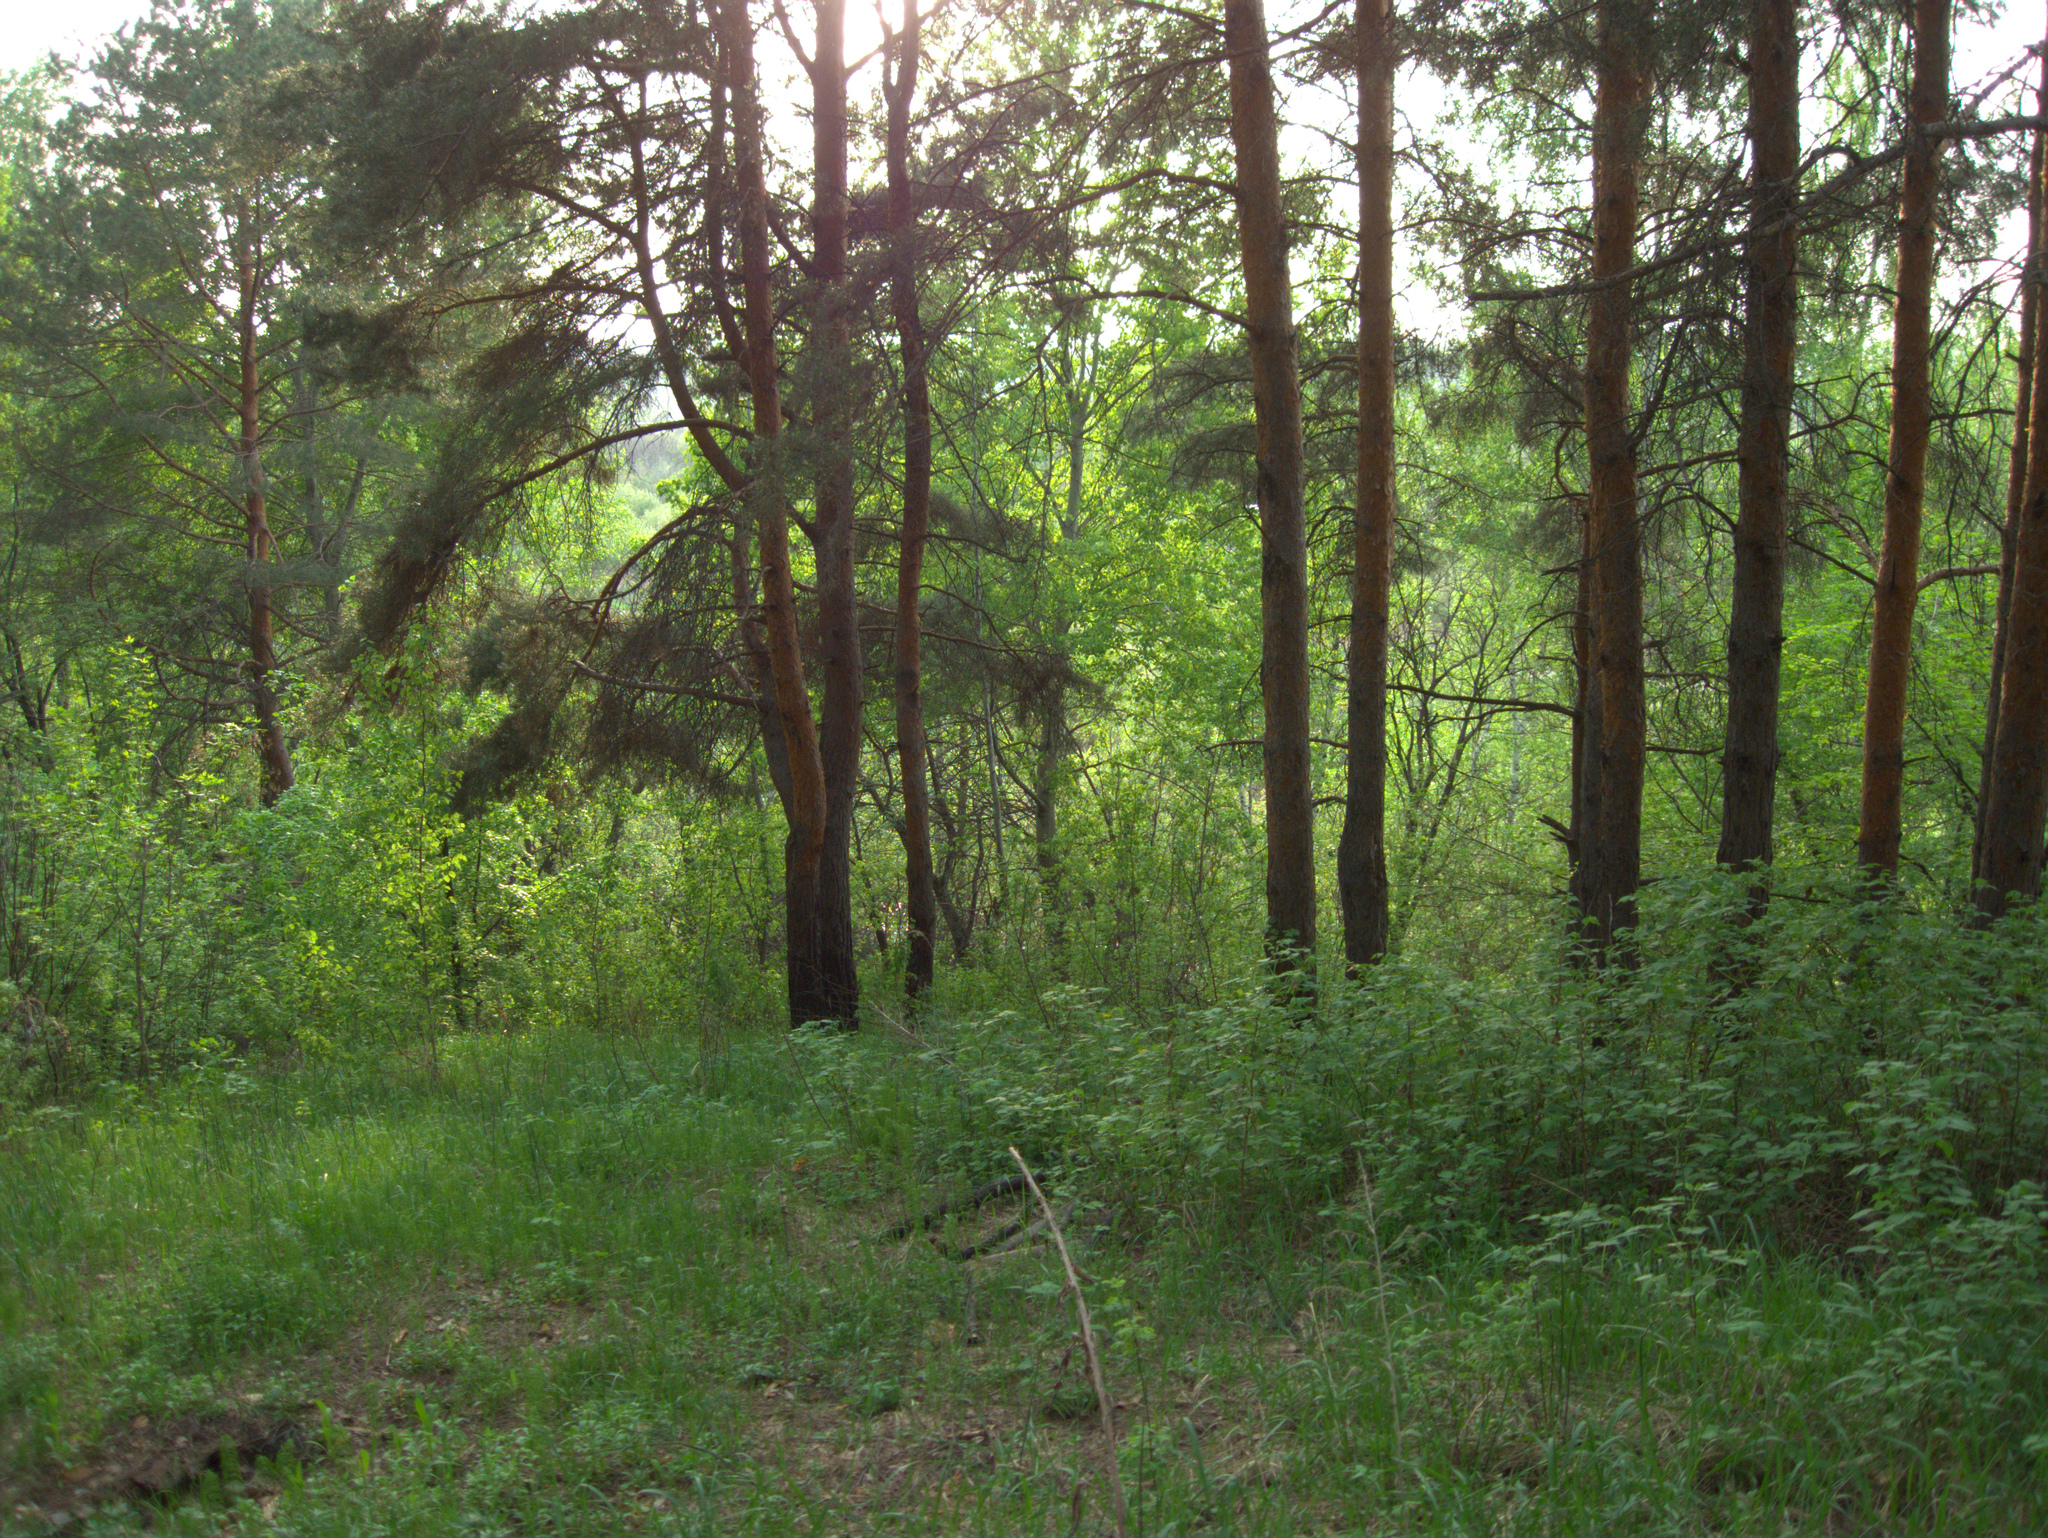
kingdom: Plantae
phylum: Tracheophyta
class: Pinopsida
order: Pinales
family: Pinaceae
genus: Pinus
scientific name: Pinus sylvestris
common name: Scots pine
